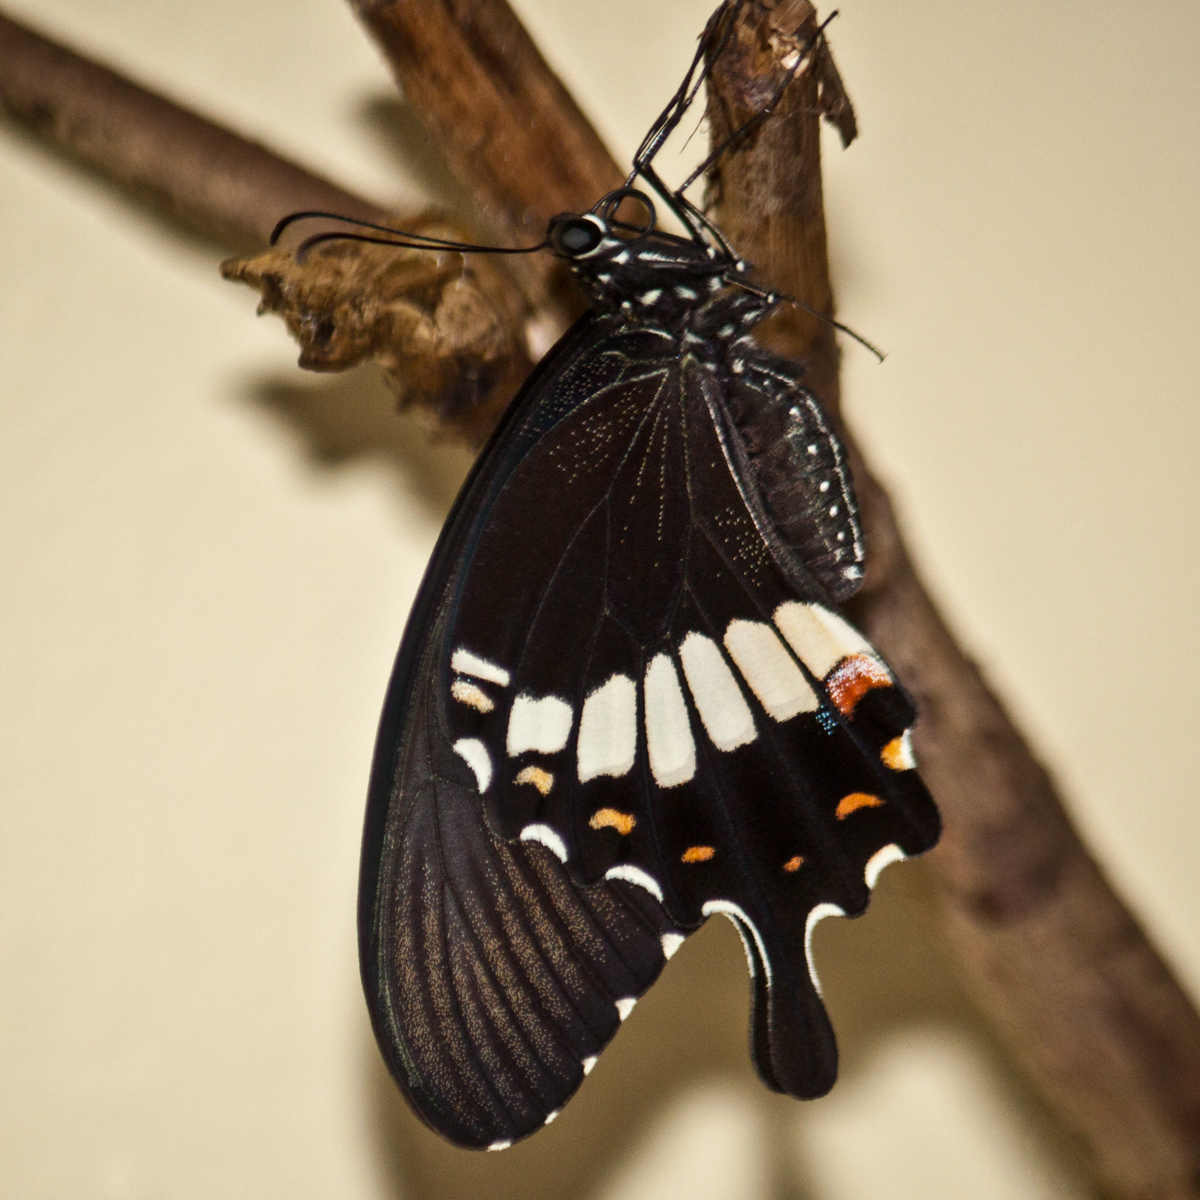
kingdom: Animalia
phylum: Arthropoda
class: Insecta
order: Lepidoptera
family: Papilionidae
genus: Papilio
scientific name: Papilio polytes
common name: Common mormon
